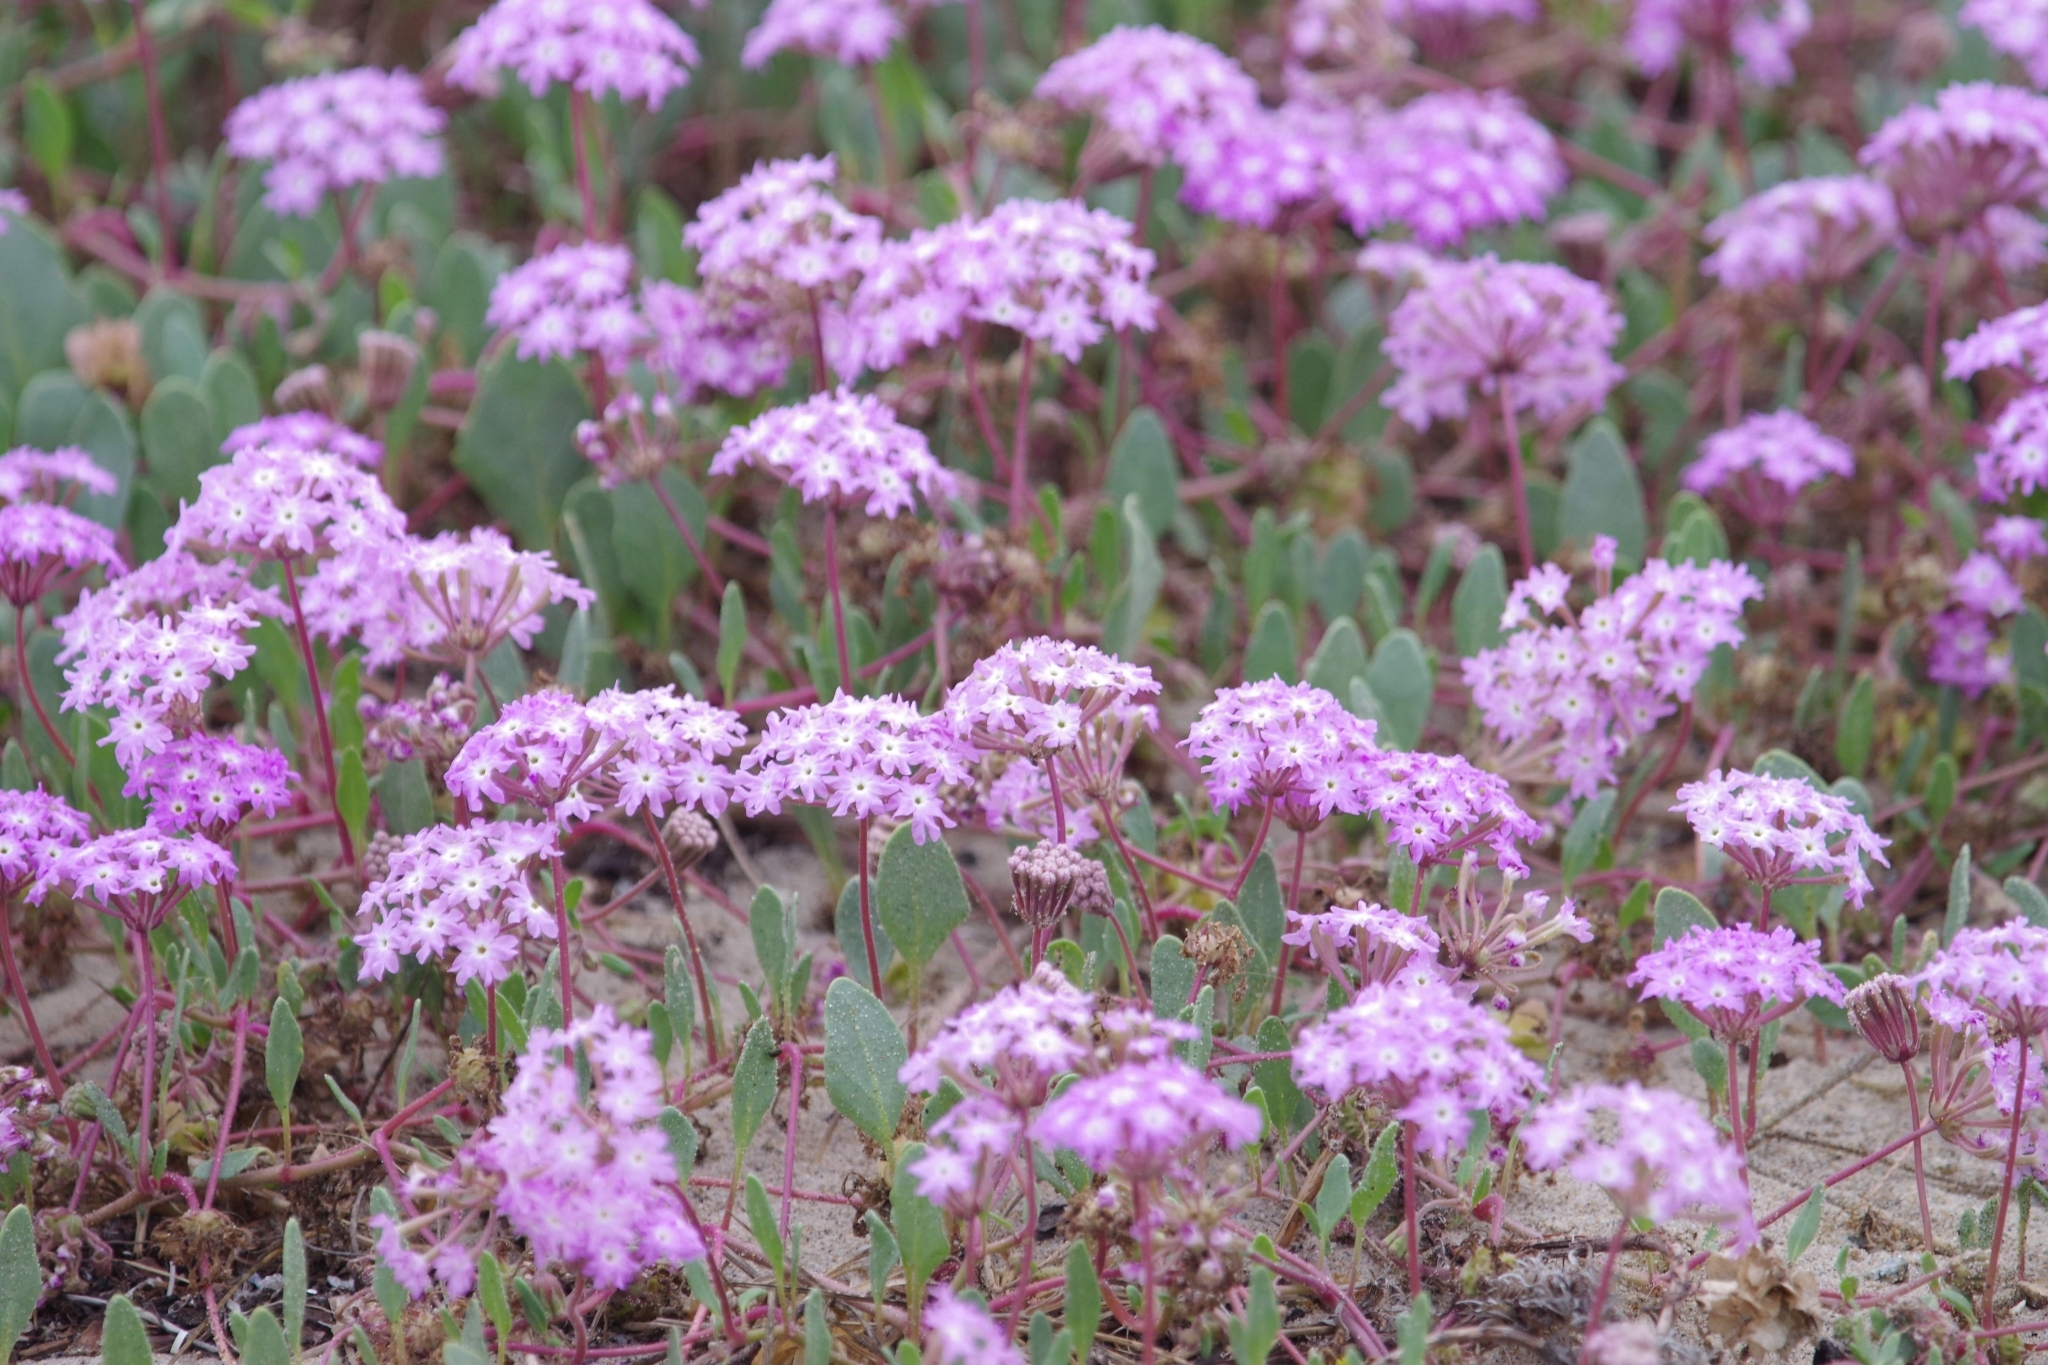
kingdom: Plantae
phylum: Tracheophyta
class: Magnoliopsida
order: Caryophyllales
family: Nyctaginaceae
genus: Abronia
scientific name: Abronia umbellata
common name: Sand-verbena
